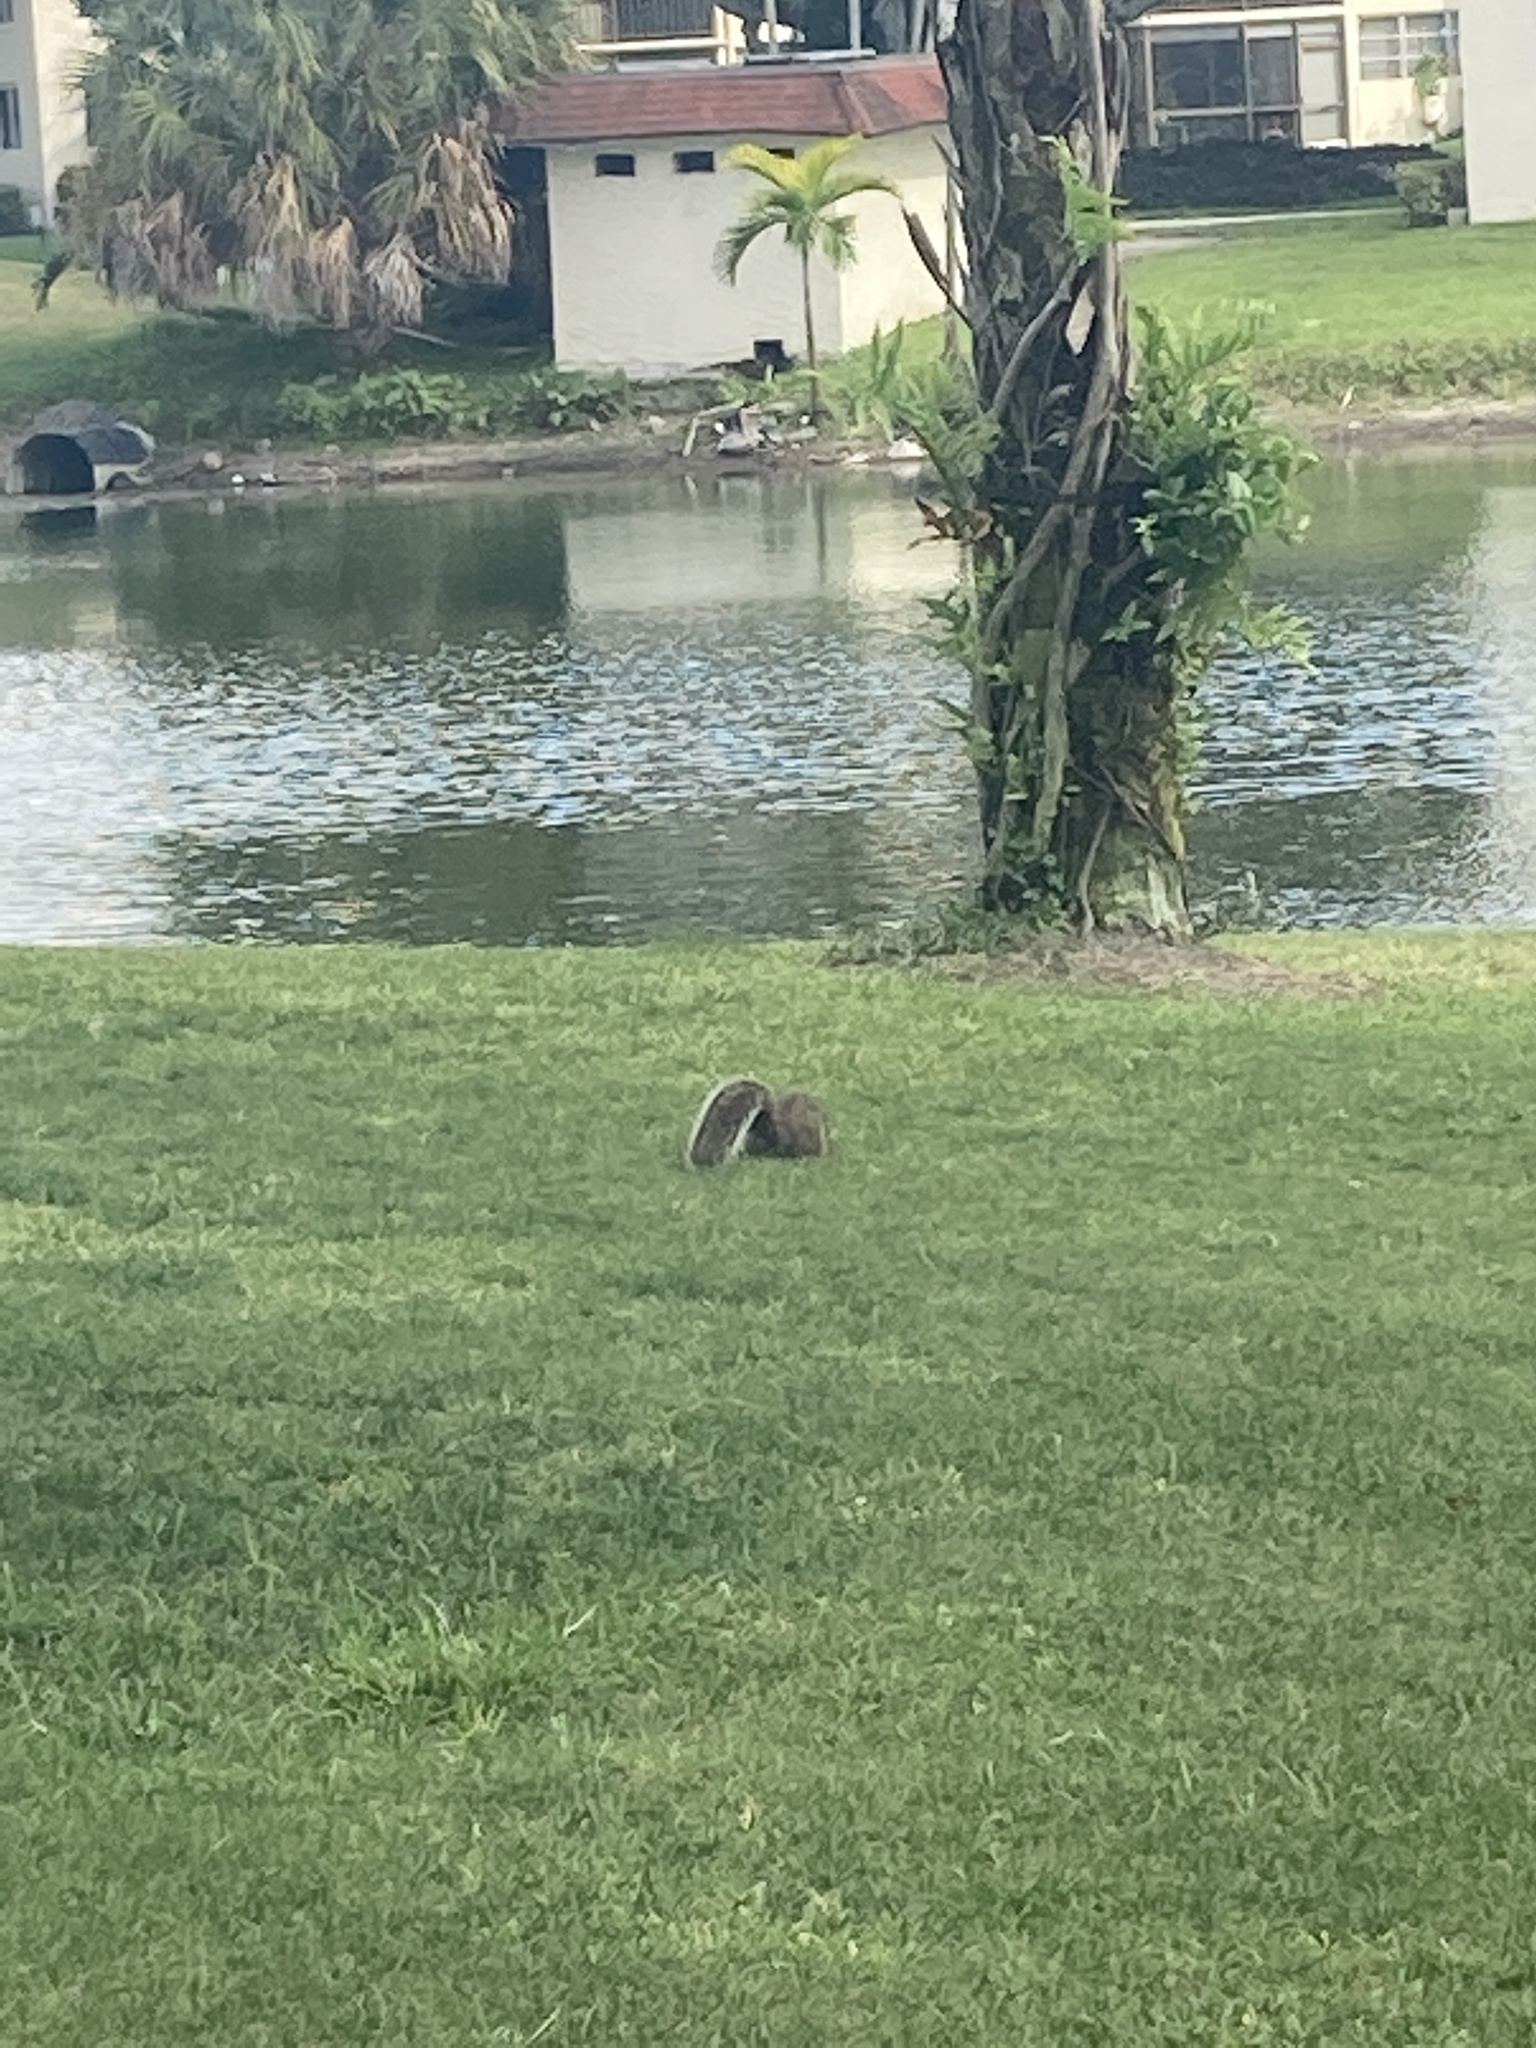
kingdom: Animalia
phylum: Chordata
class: Mammalia
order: Rodentia
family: Sciuridae
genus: Sciurus
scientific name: Sciurus carolinensis
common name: Eastern gray squirrel
